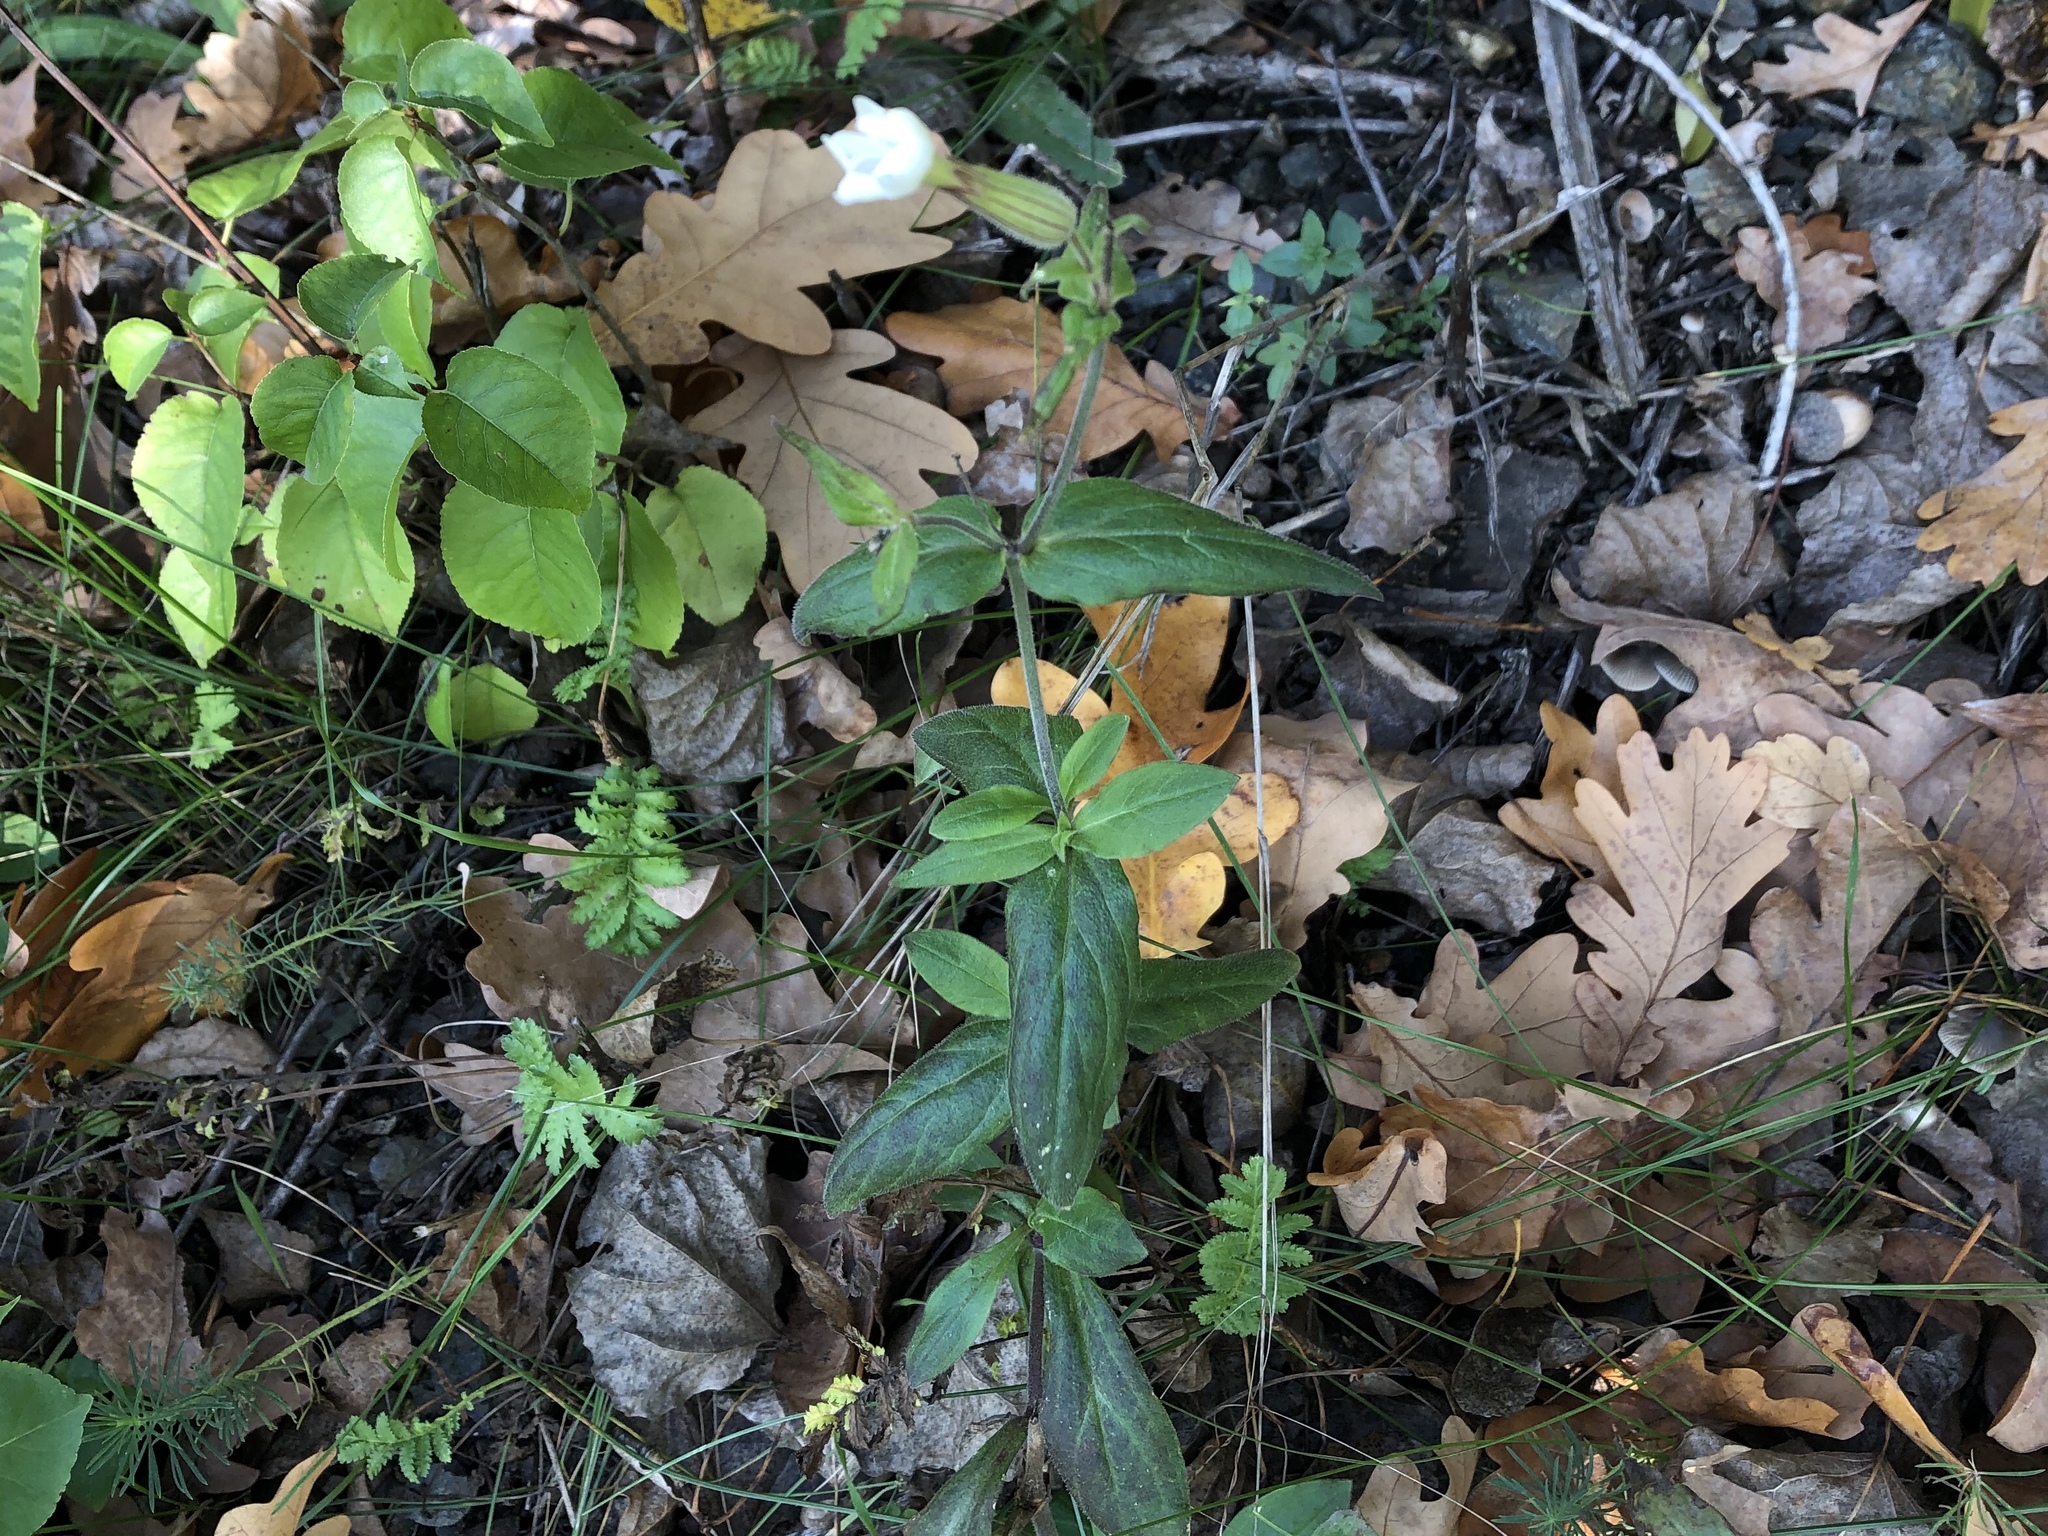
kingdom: Plantae
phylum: Tracheophyta
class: Magnoliopsida
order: Caryophyllales
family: Caryophyllaceae
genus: Silene
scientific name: Silene latifolia
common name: White campion
